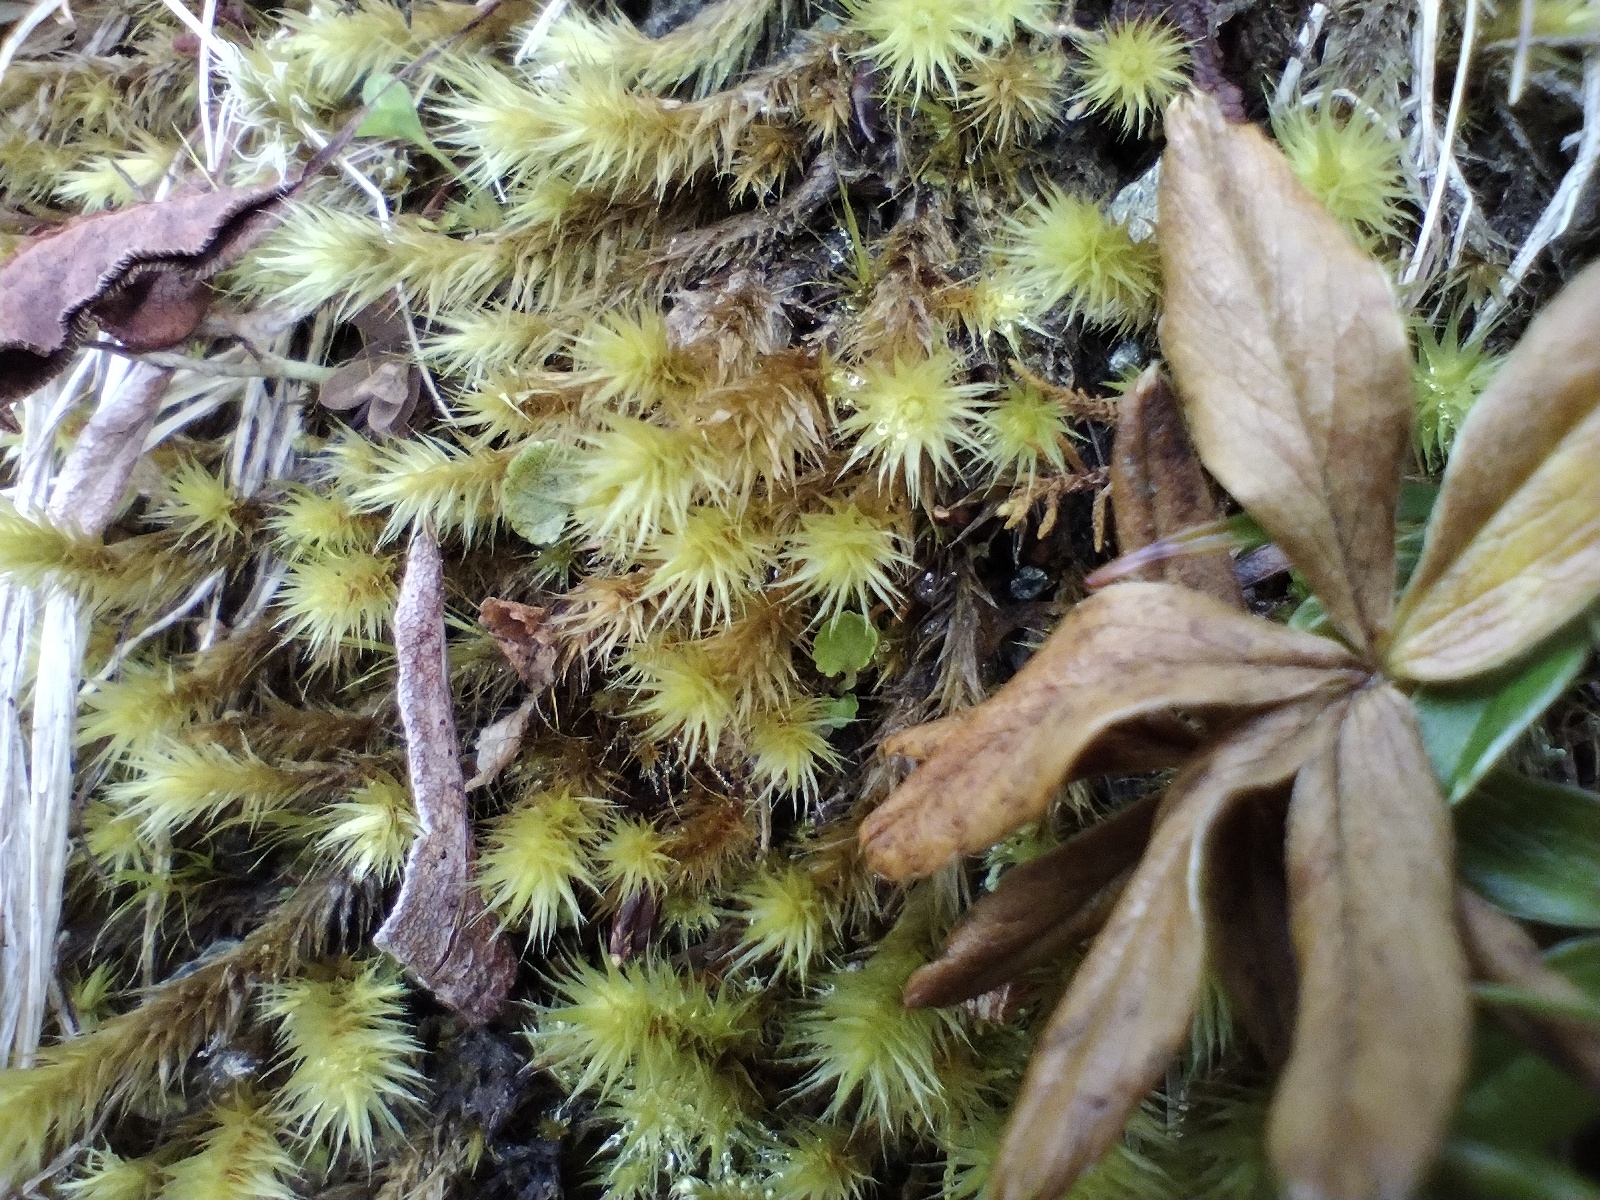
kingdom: Plantae
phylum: Bryophyta
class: Bryopsida
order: Bartramiales
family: Bartramiaceae
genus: Breutelia
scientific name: Breutelia chrysocoma
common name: Bottle-brush moss
